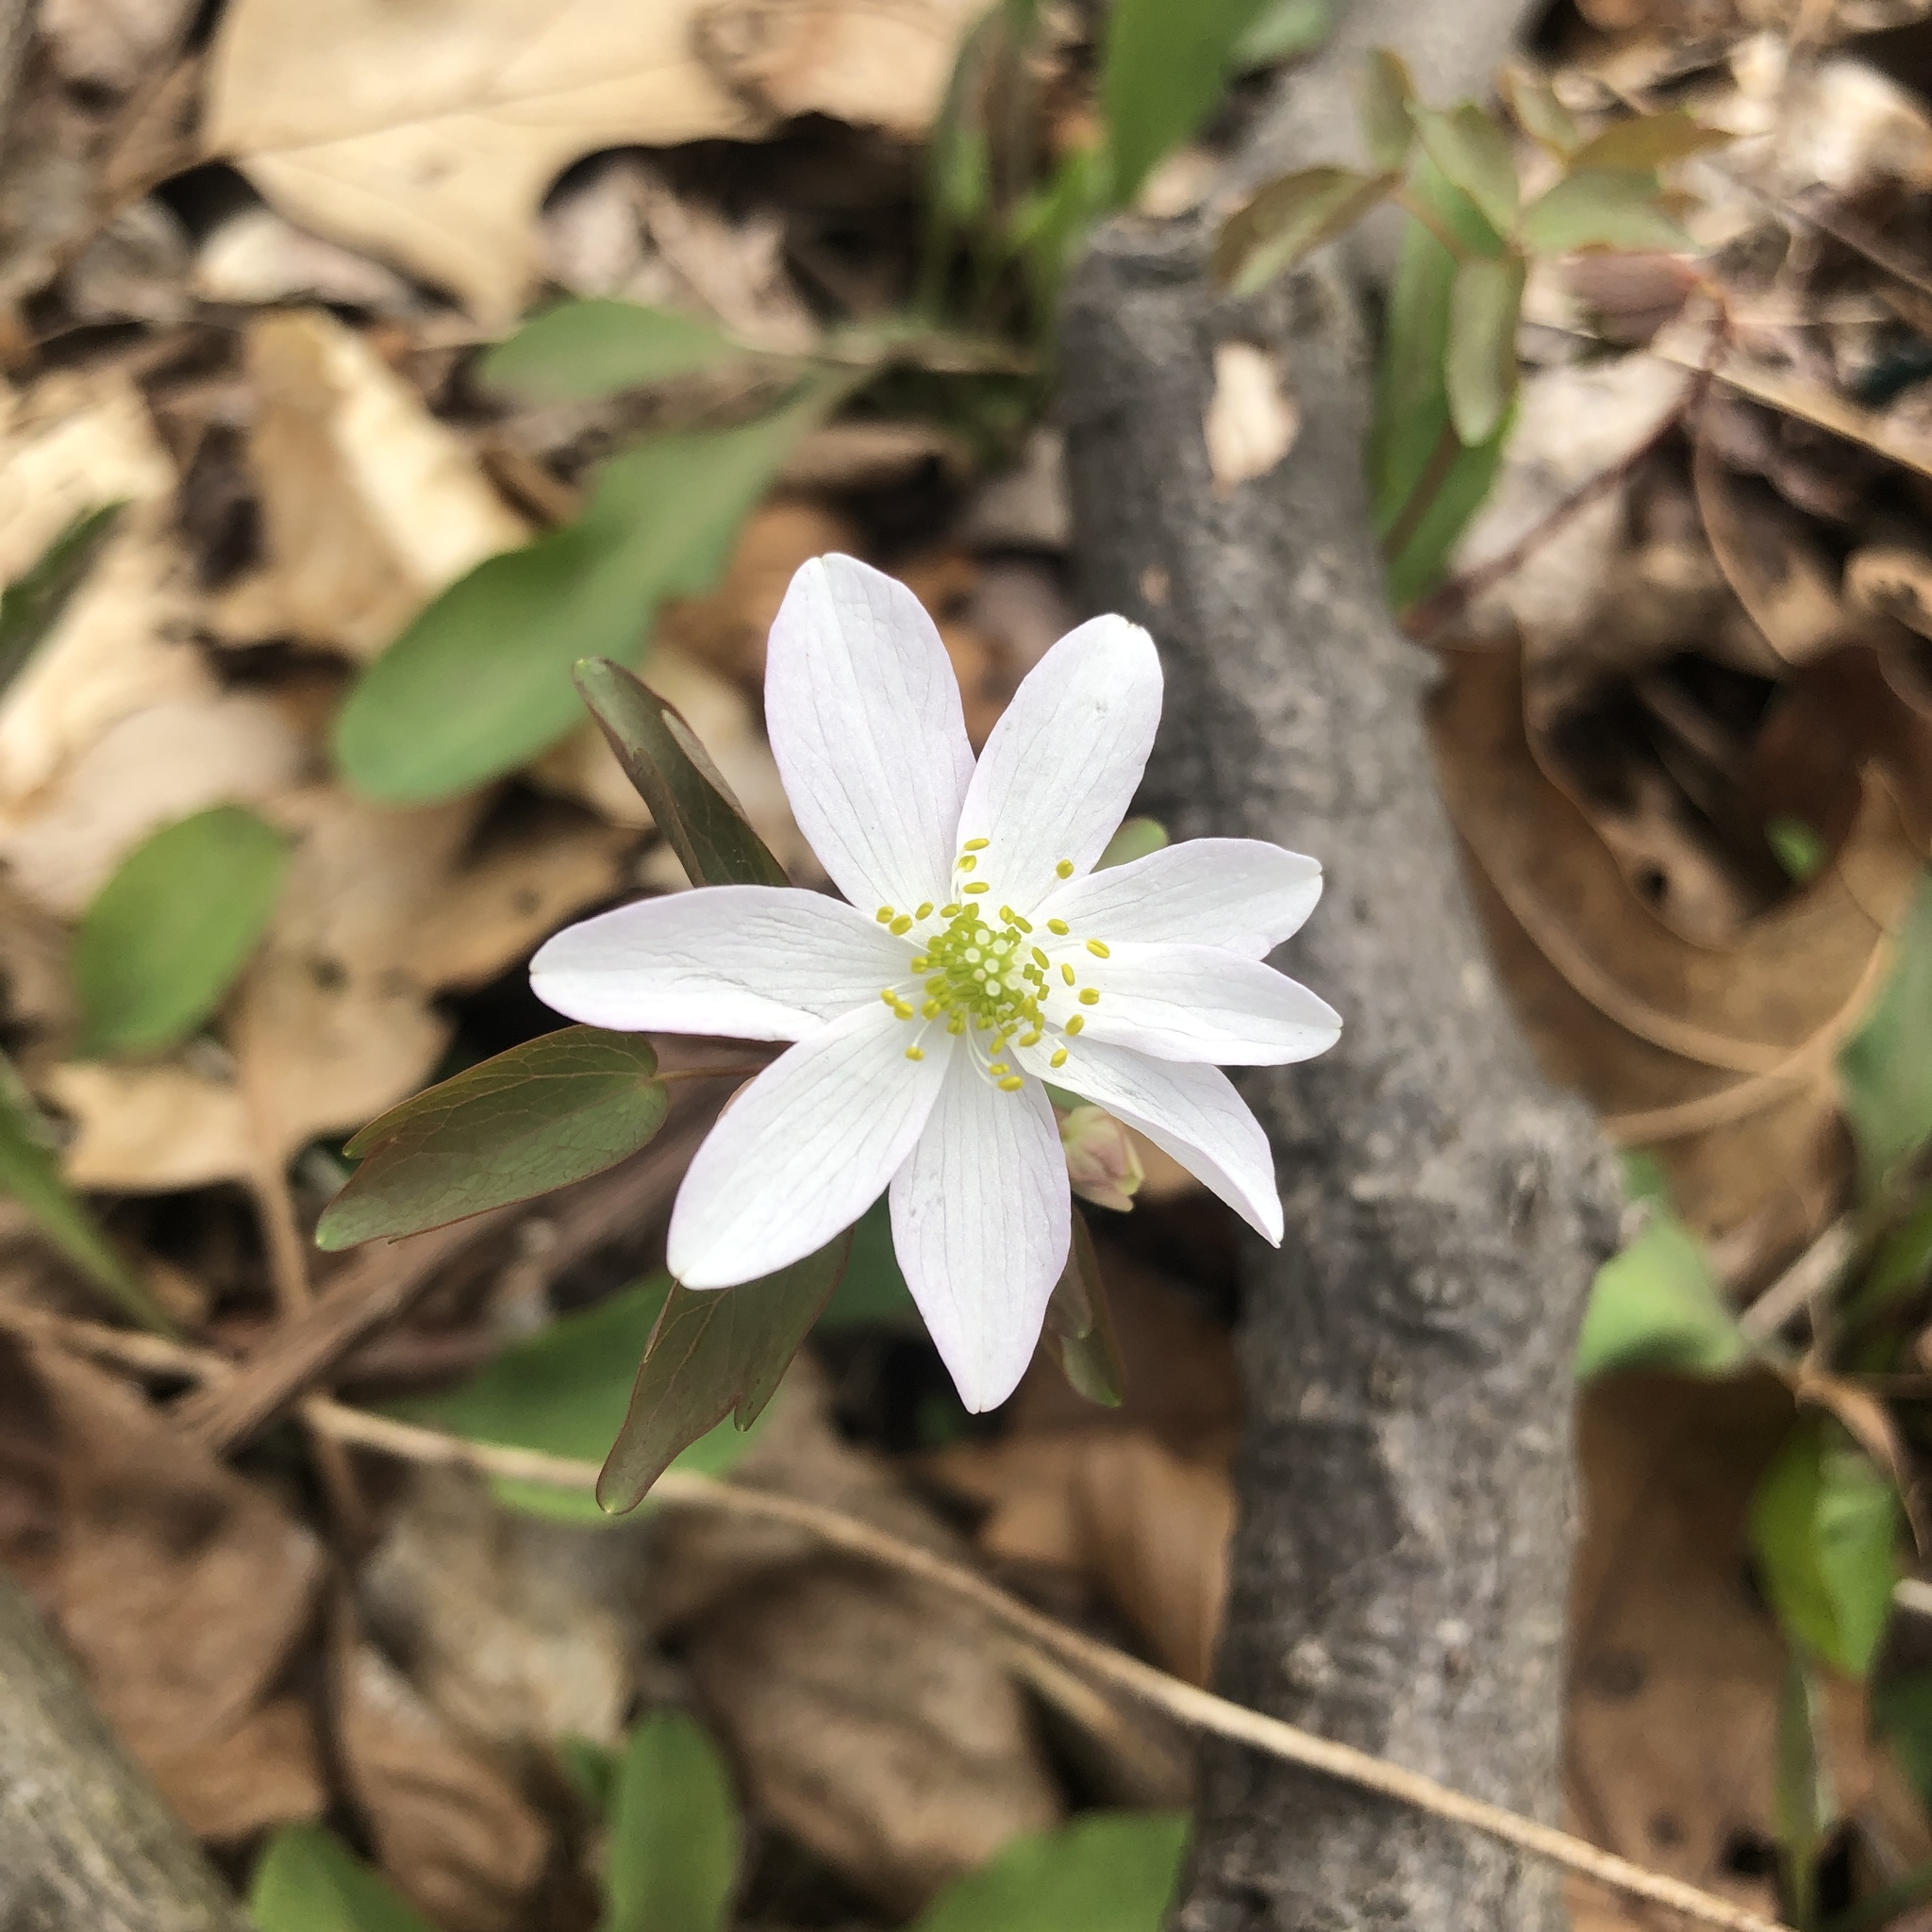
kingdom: Plantae
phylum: Tracheophyta
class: Magnoliopsida
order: Ranunculales
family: Ranunculaceae
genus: Thalictrum
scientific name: Thalictrum thalictroides
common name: Rue-anemone
